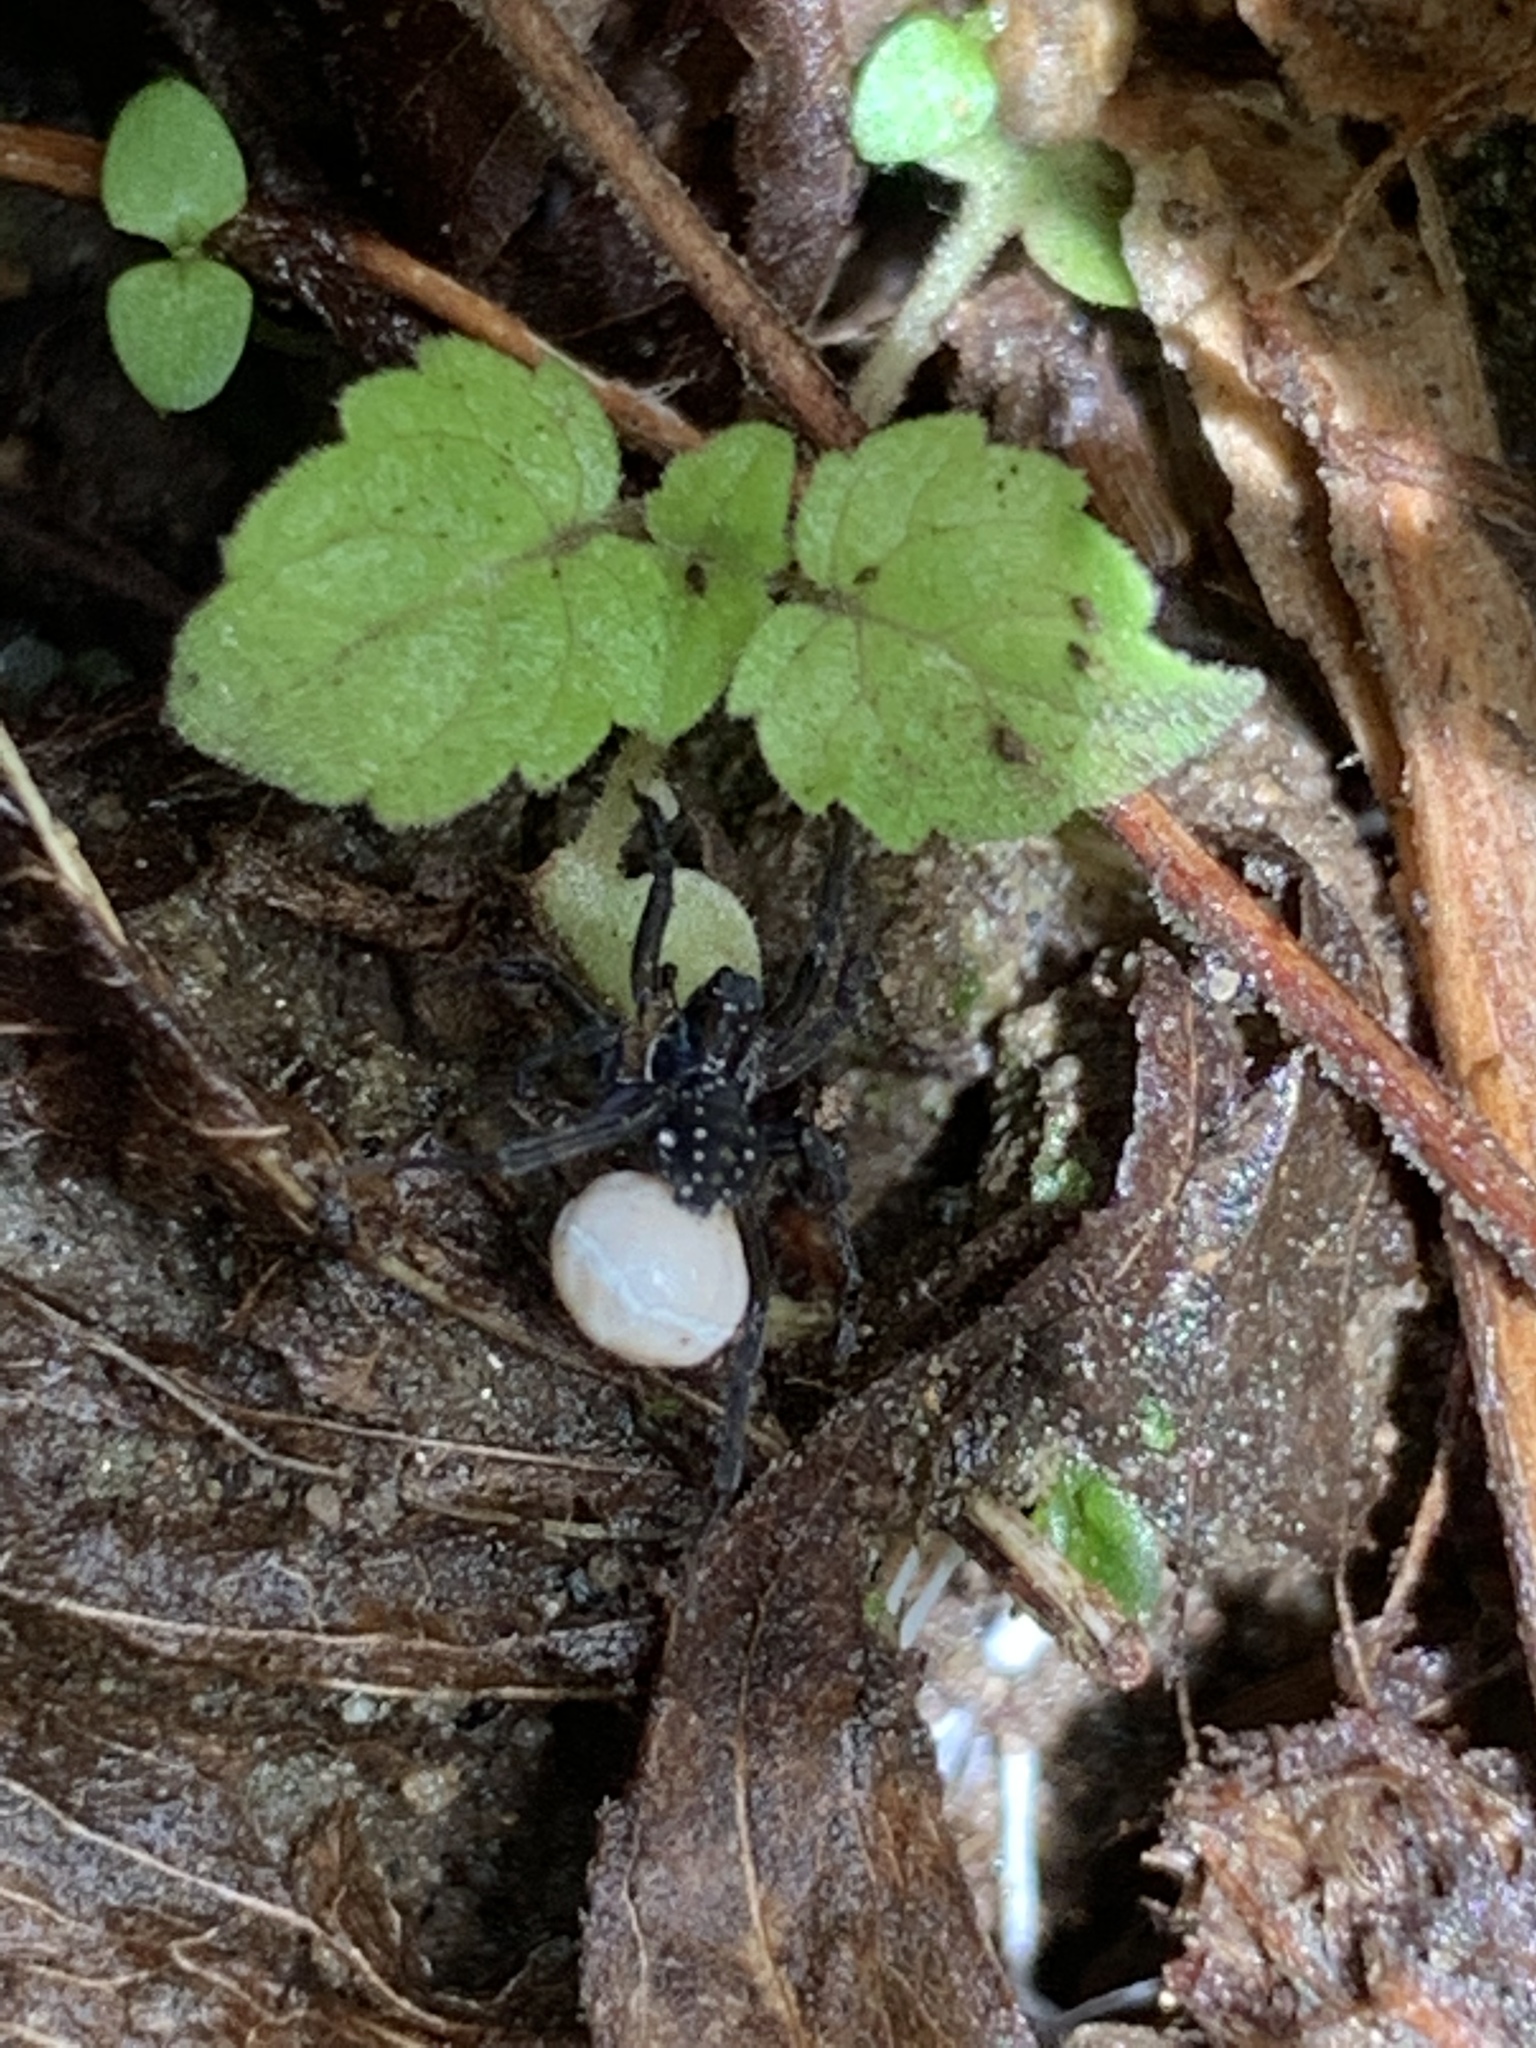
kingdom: Animalia
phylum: Arthropoda
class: Arachnida
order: Araneae
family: Lycosidae
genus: Pirata
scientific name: Pirata montanus
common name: Dark-legged pirate wolf spider
